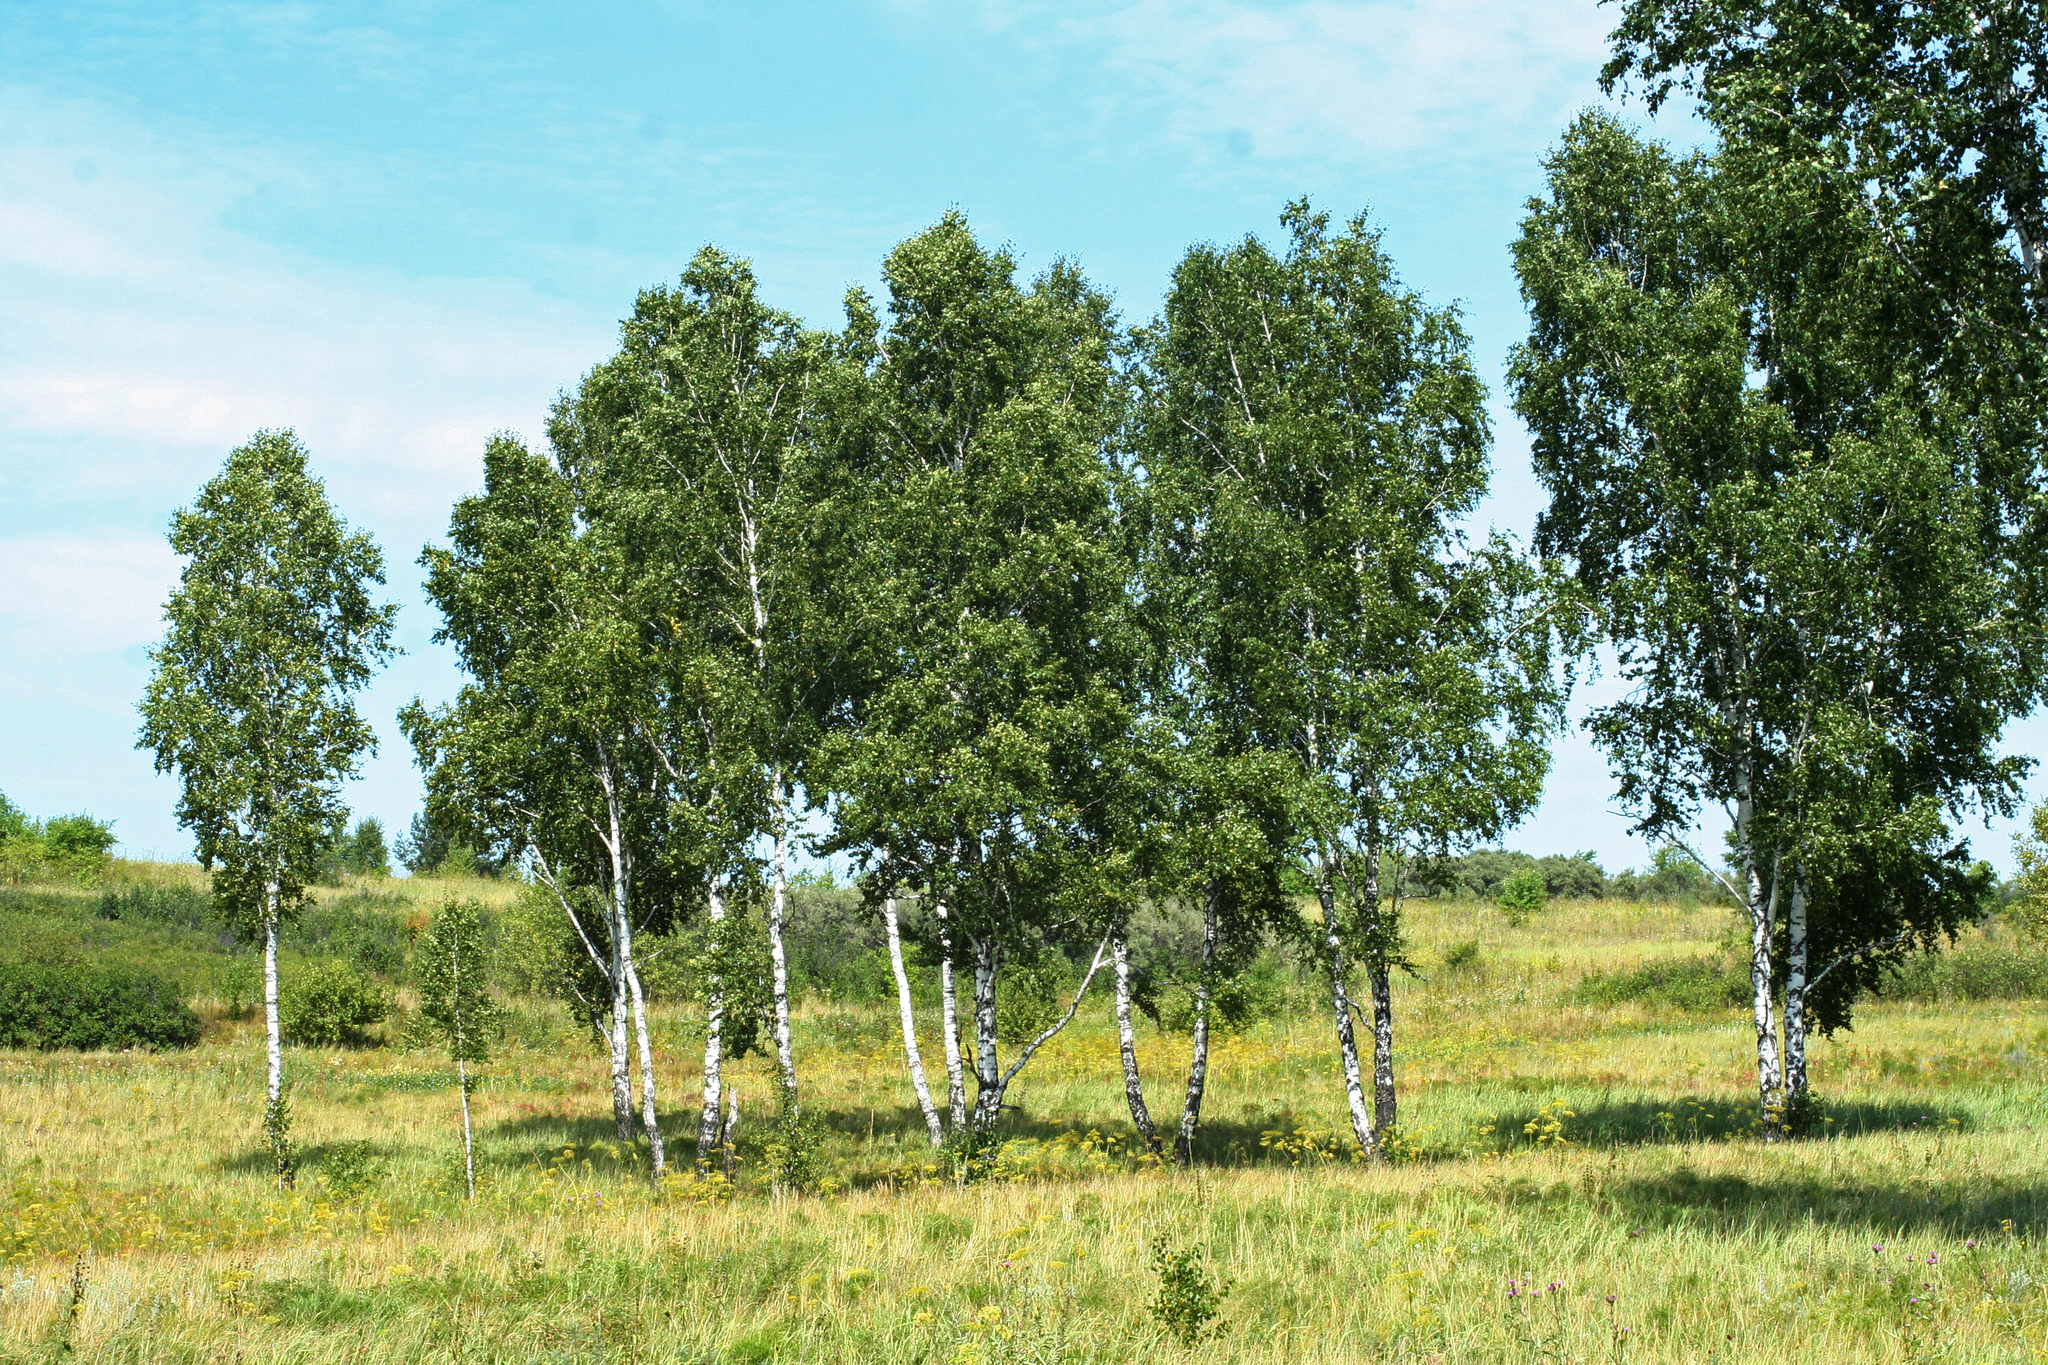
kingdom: Plantae
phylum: Tracheophyta
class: Magnoliopsida
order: Fagales
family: Betulaceae
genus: Betula
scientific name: Betula pendula
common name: Silver birch
